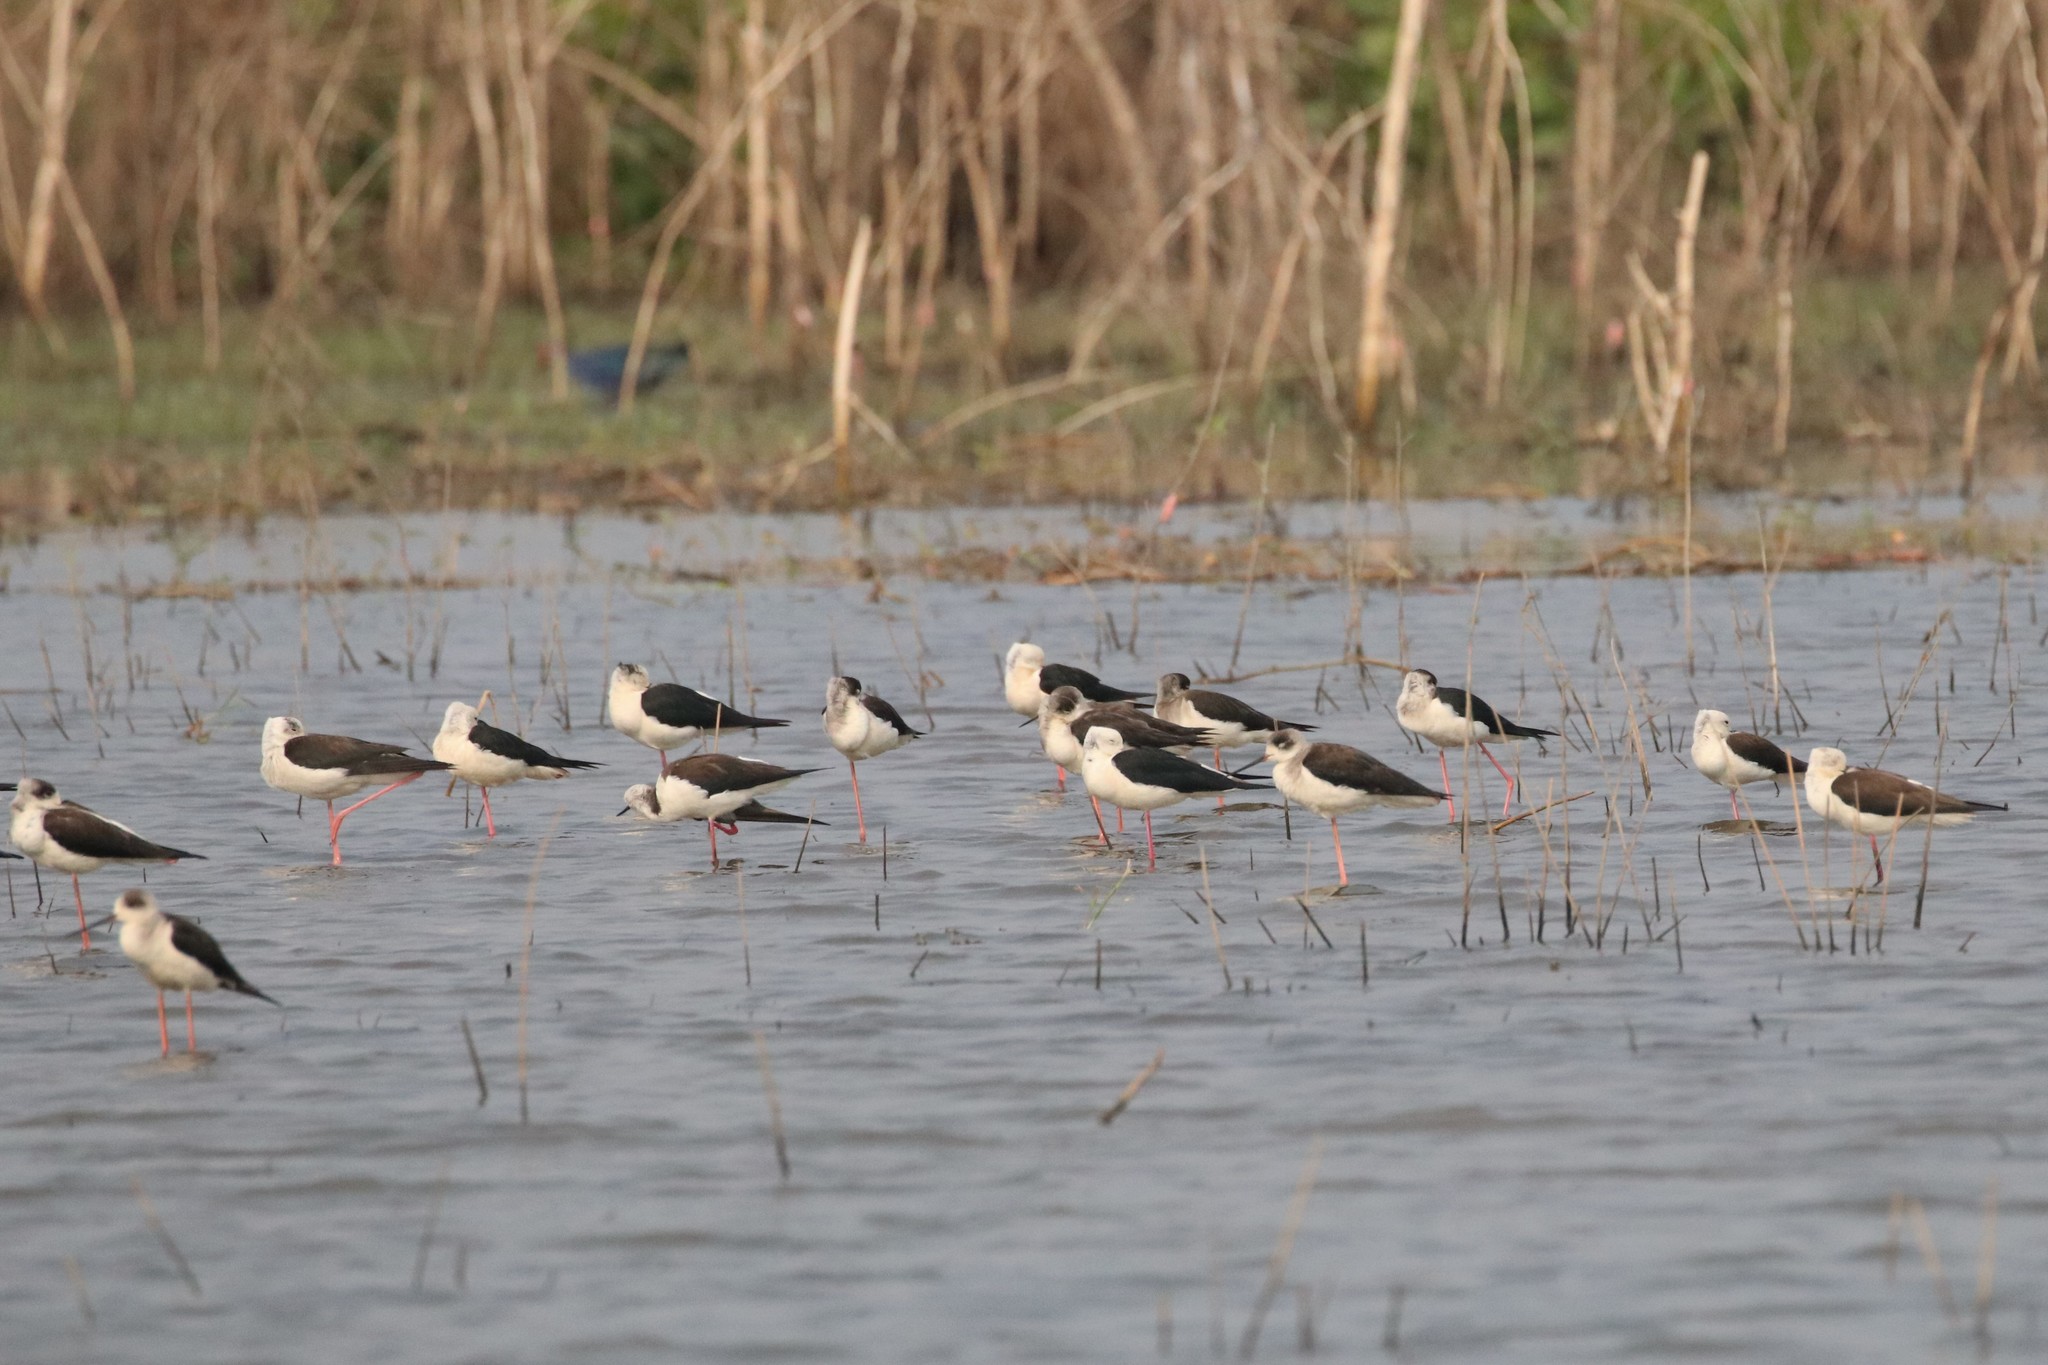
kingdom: Animalia
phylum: Chordata
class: Aves
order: Charadriiformes
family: Recurvirostridae
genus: Himantopus
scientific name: Himantopus himantopus
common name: Black-winged stilt
